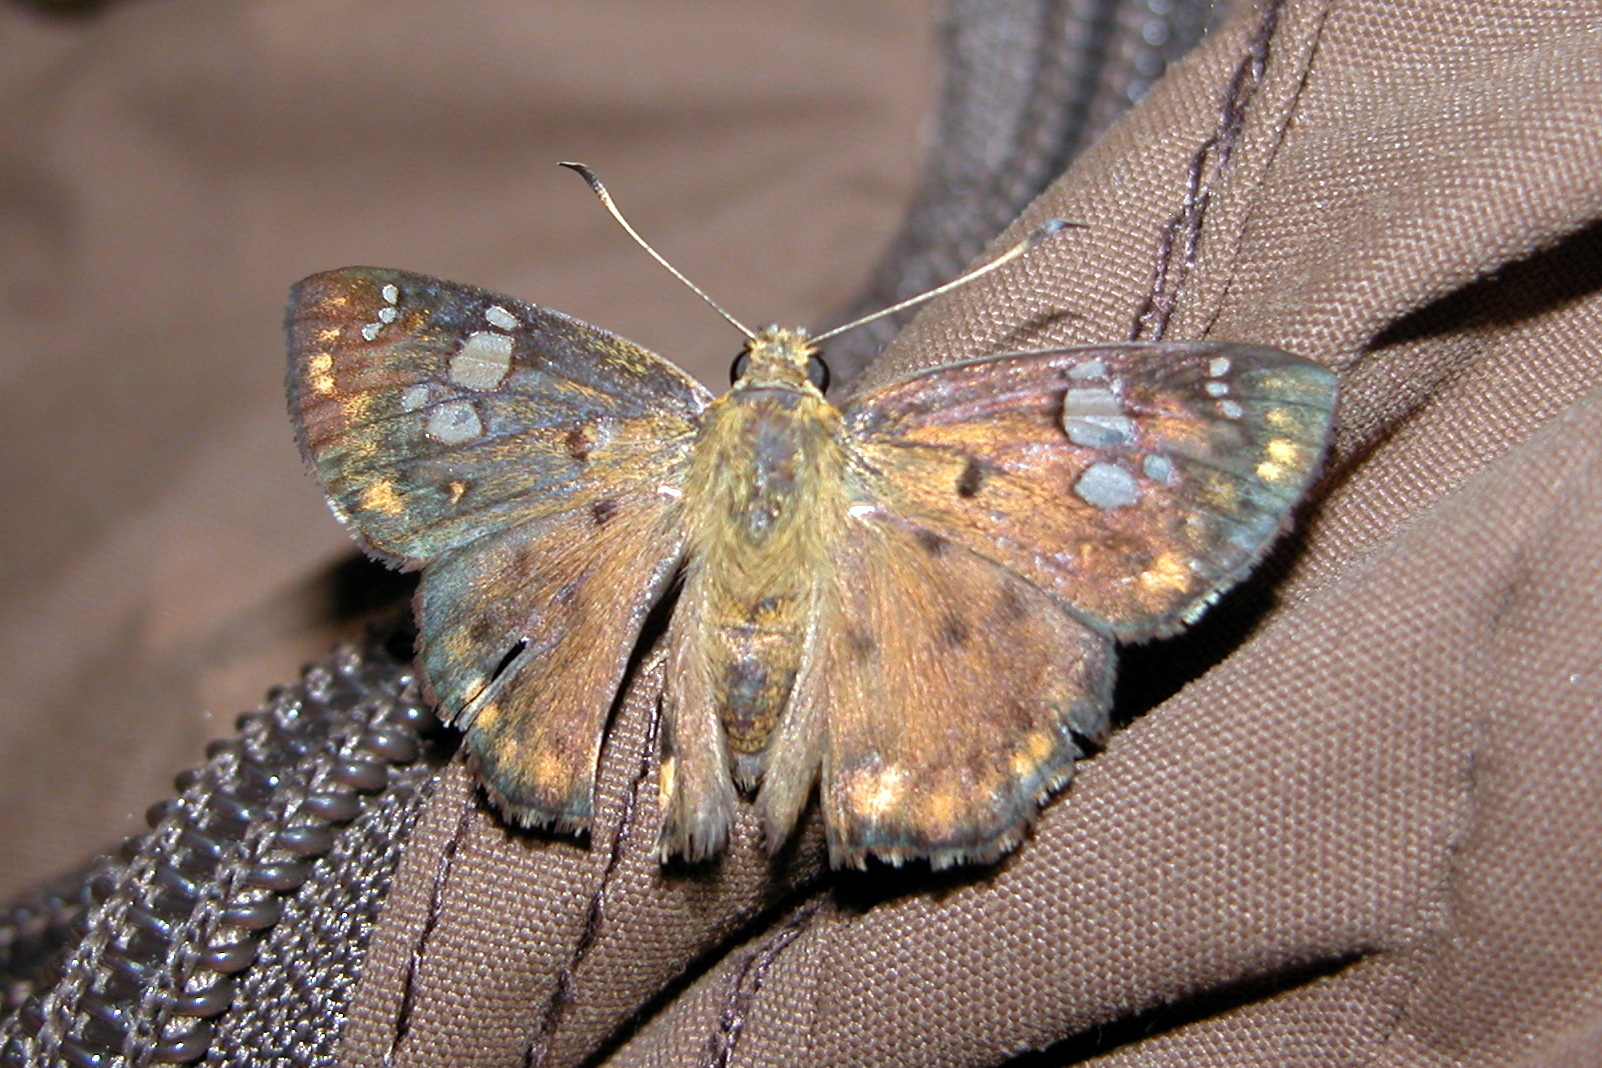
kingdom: Animalia
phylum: Arthropoda
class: Insecta
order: Lepidoptera
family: Hesperiidae
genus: Coladenia
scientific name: Coladenia
